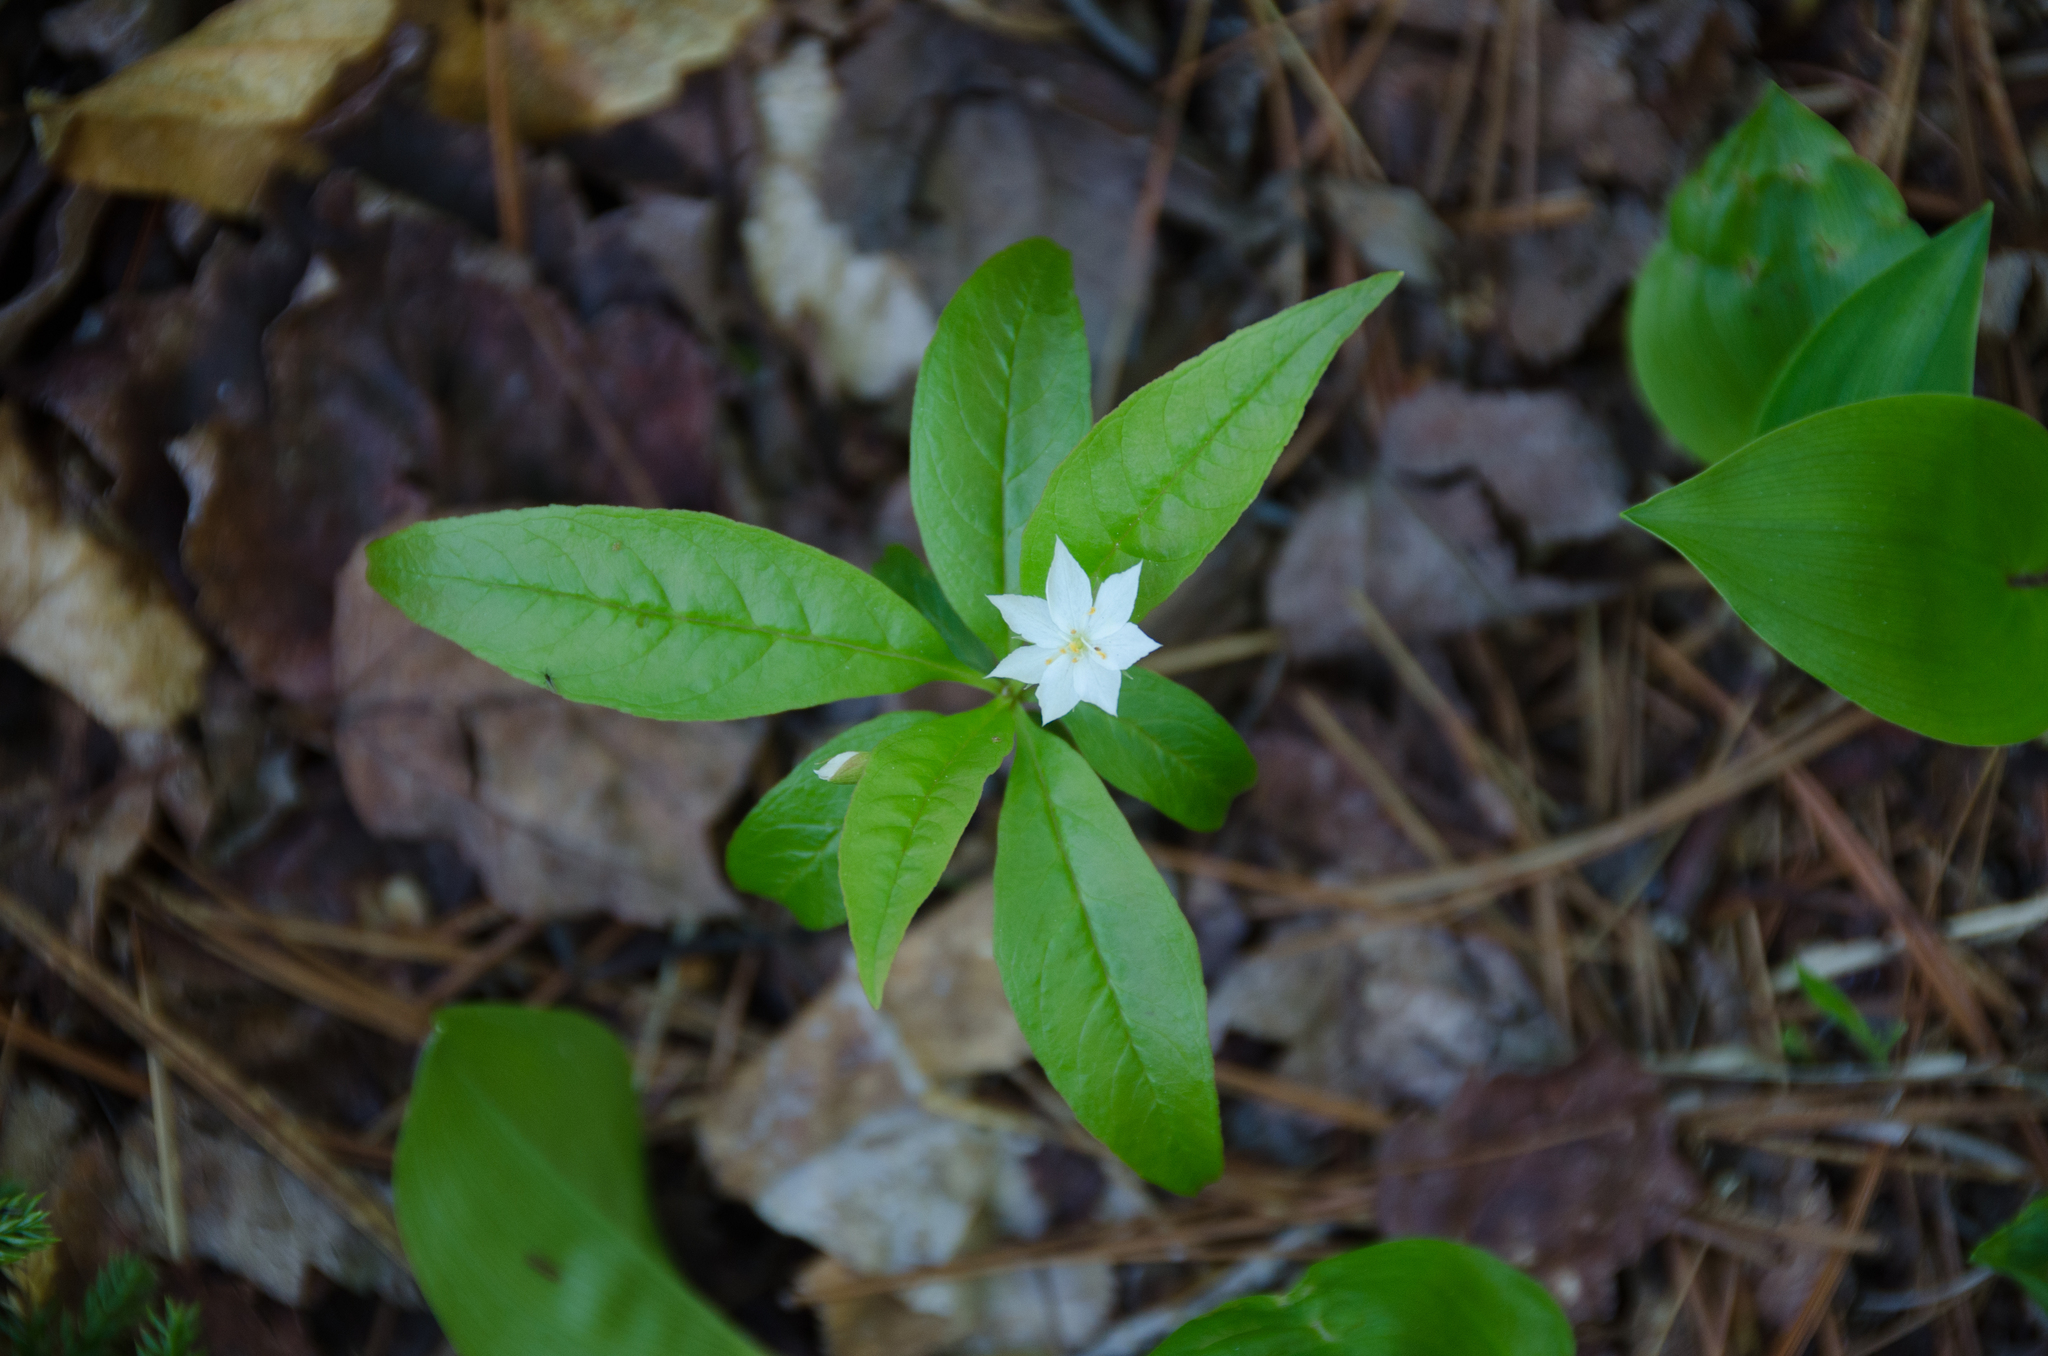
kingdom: Plantae
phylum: Tracheophyta
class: Magnoliopsida
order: Ericales
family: Primulaceae
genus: Lysimachia
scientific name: Lysimachia borealis
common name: American starflower
